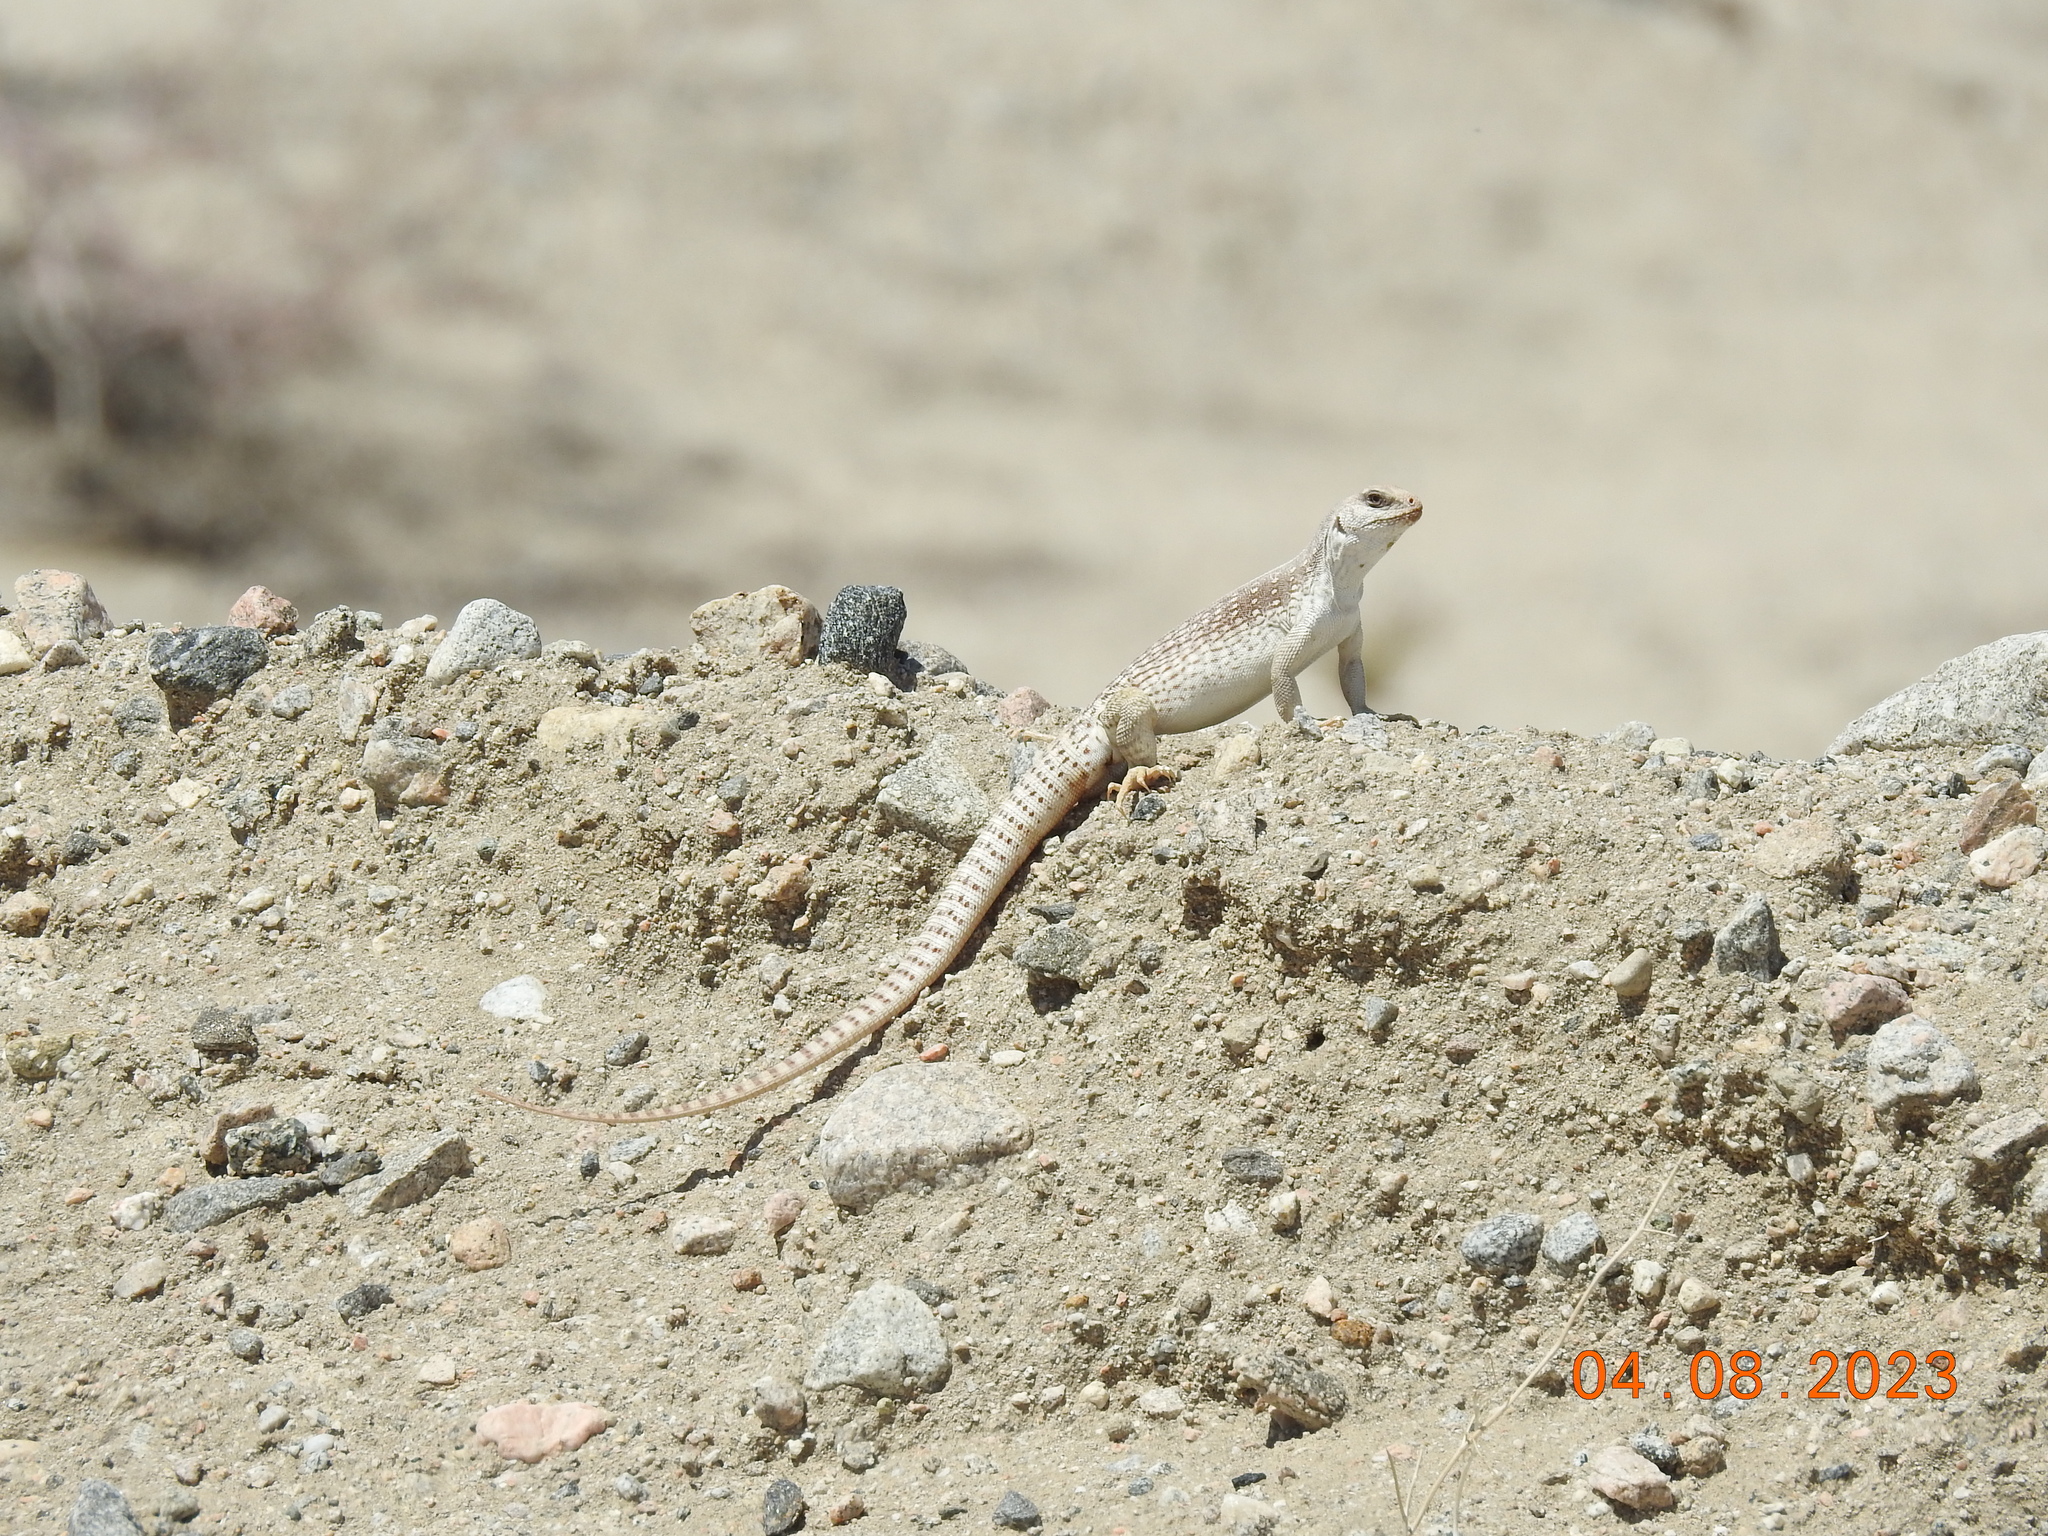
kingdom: Animalia
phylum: Chordata
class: Squamata
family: Iguanidae
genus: Dipsosaurus
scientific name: Dipsosaurus dorsalis
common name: Desert iguana
